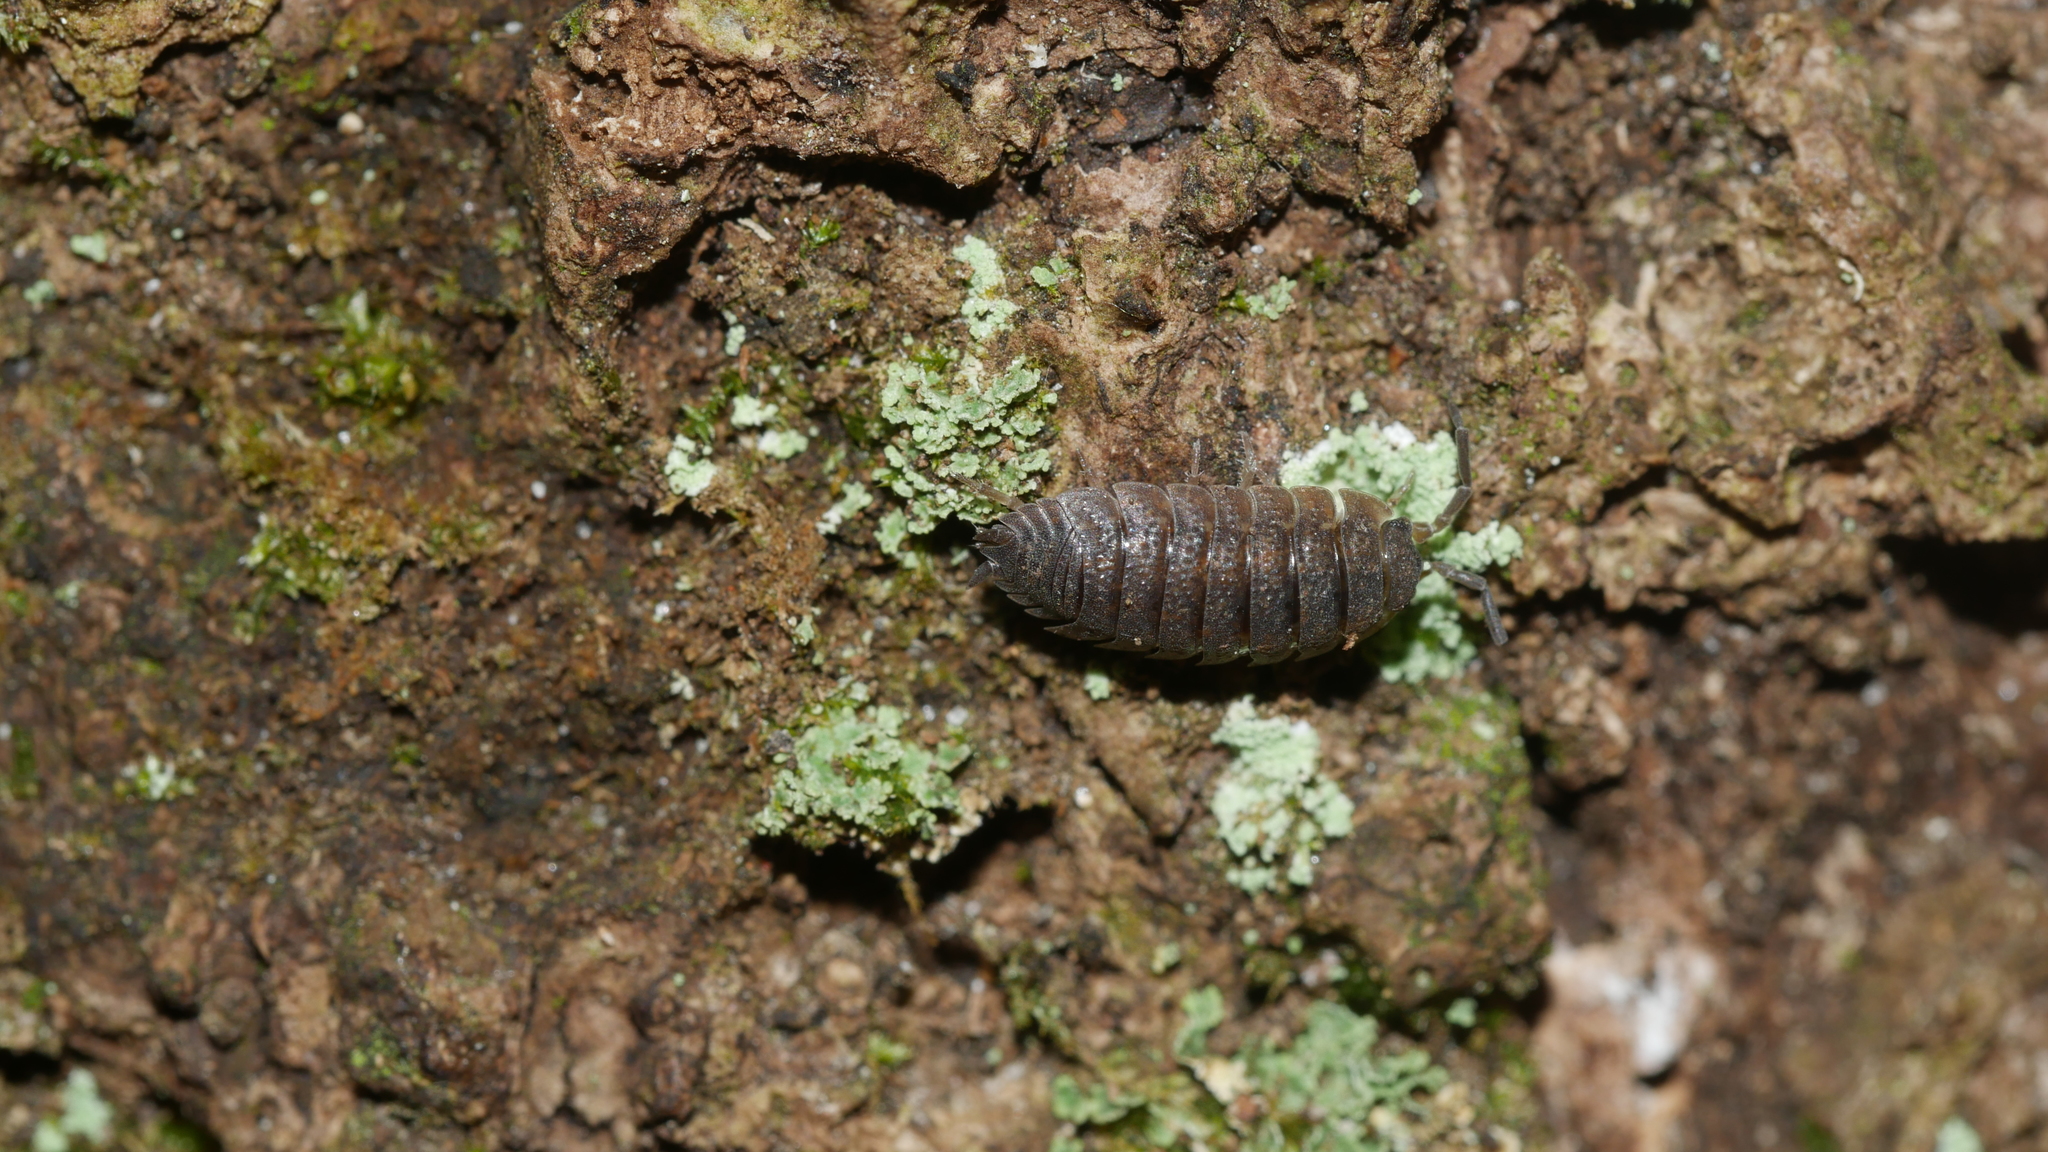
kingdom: Animalia
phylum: Arthropoda
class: Malacostraca
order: Isopoda
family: Porcellionidae
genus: Porcellio
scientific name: Porcellio scaber
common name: Common rough woodlouse
